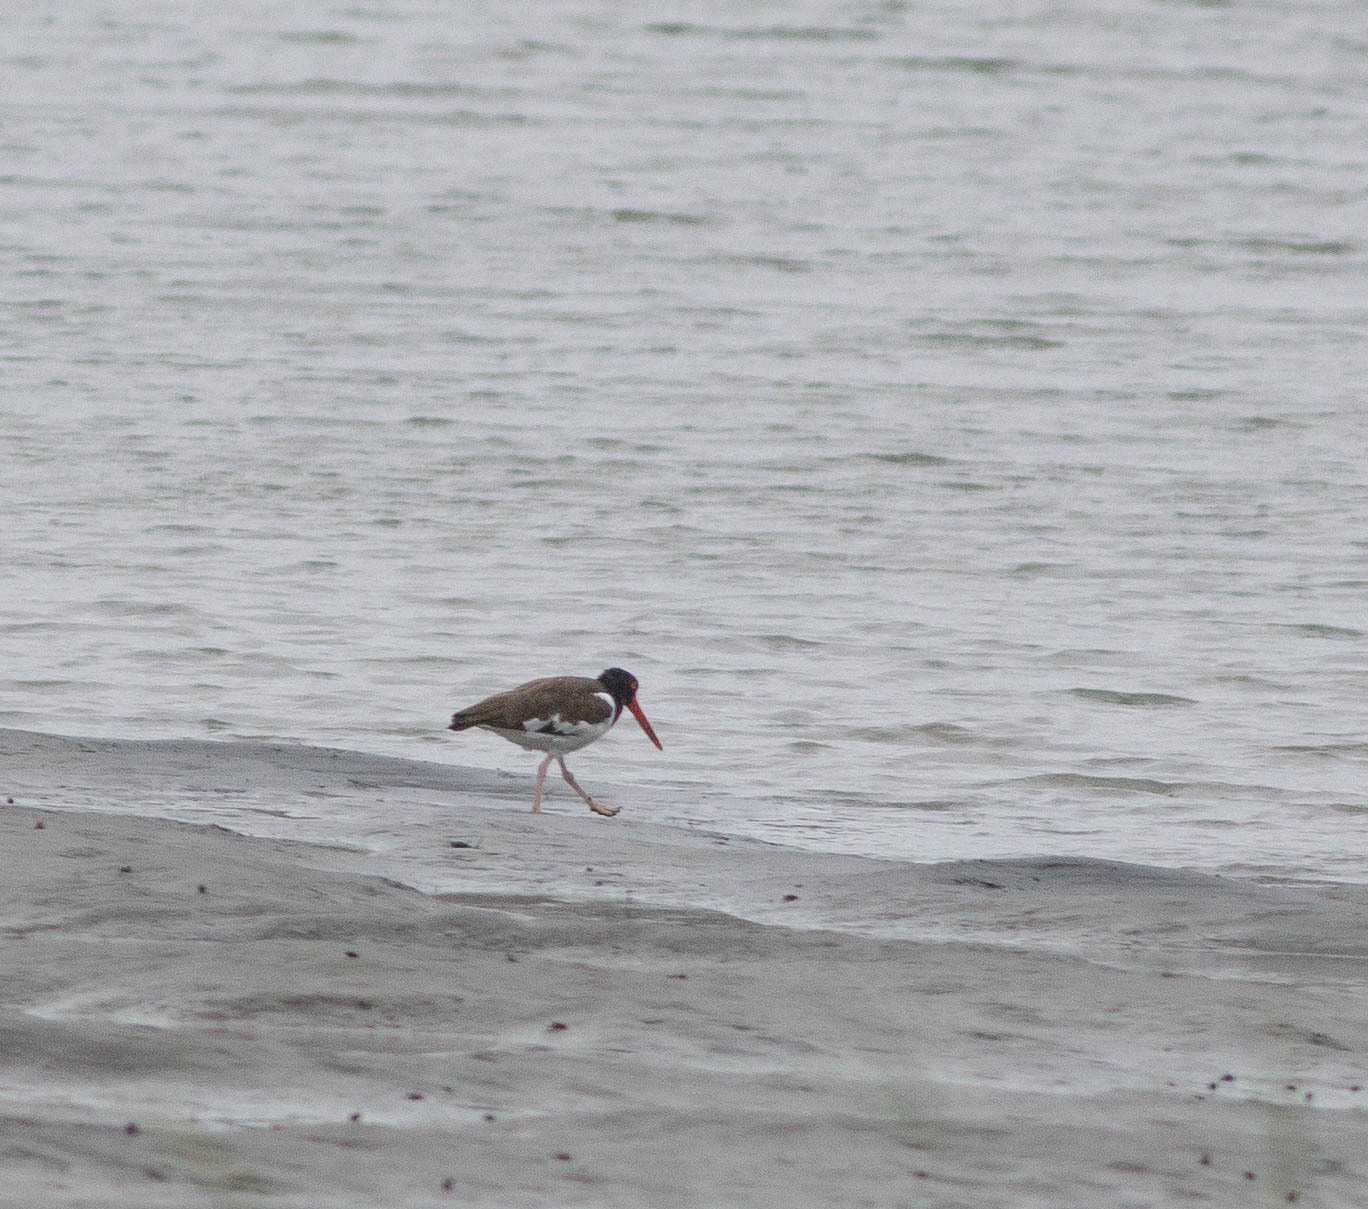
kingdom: Animalia
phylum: Chordata
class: Aves
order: Charadriiformes
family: Haematopodidae
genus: Haematopus
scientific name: Haematopus palliatus
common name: American oystercatcher
